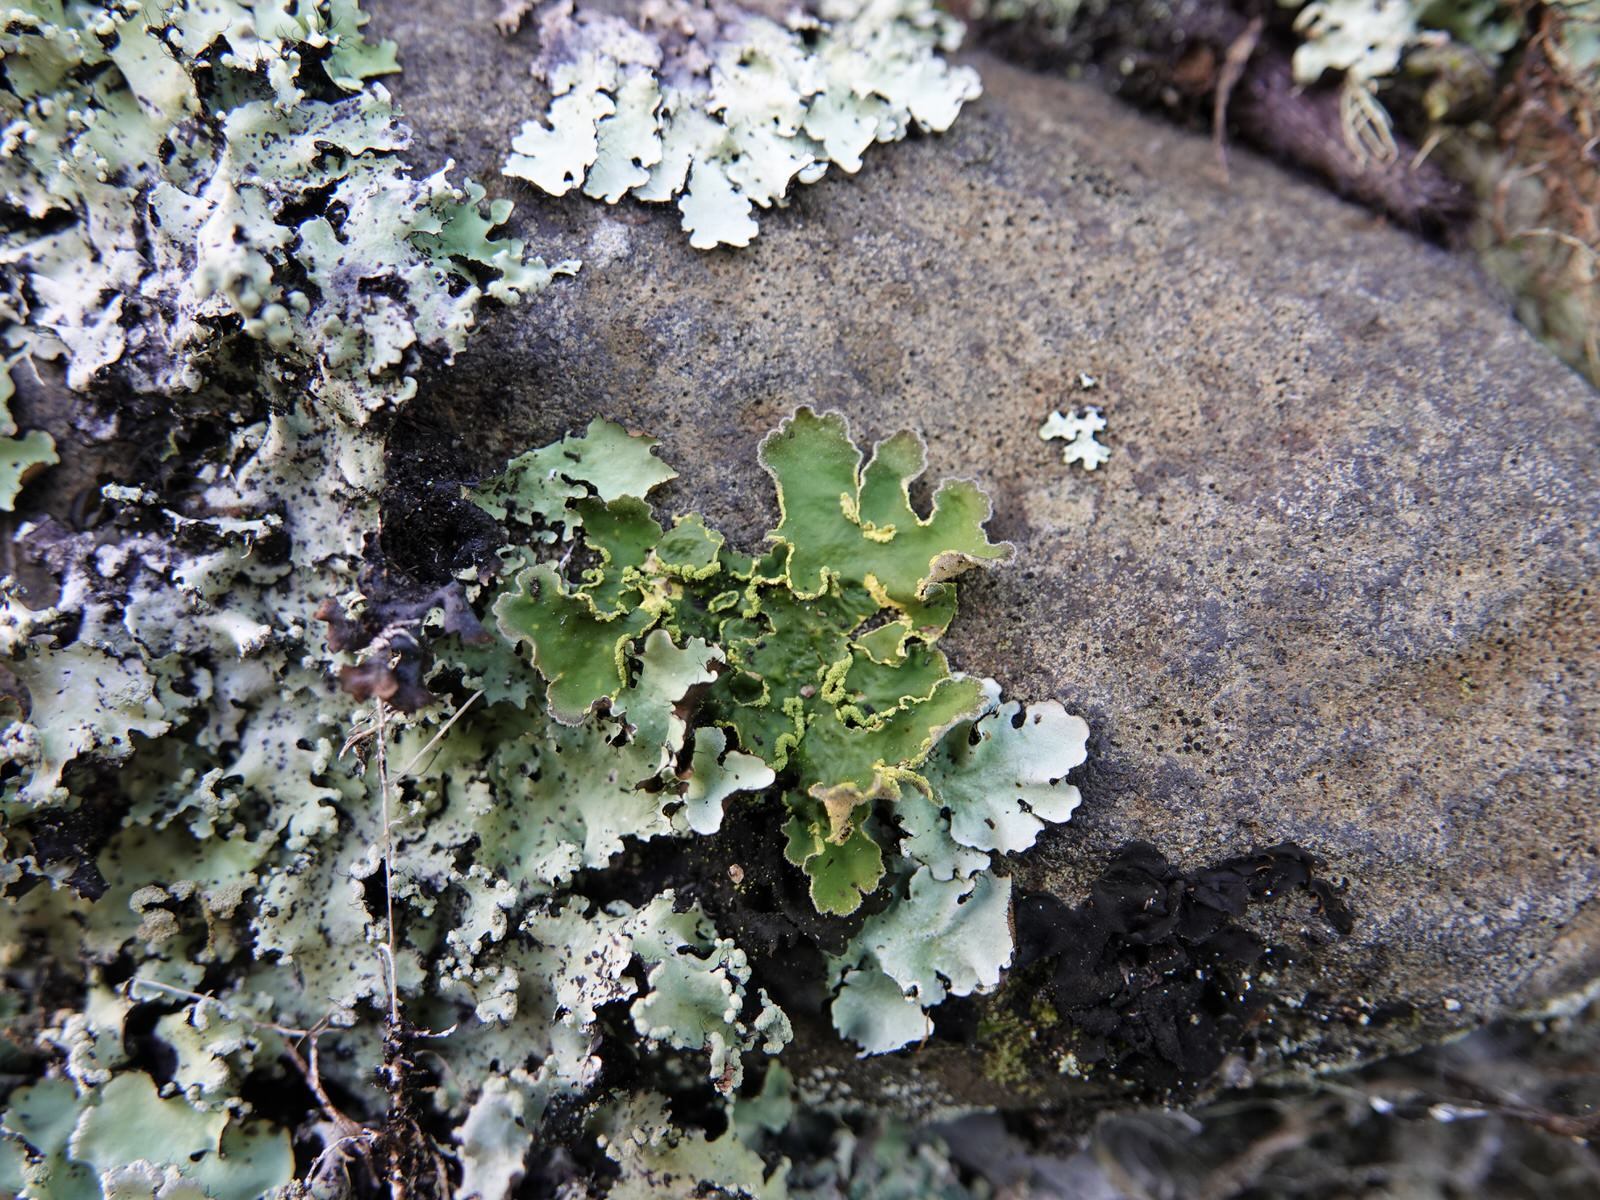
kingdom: Fungi
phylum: Ascomycota
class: Lecanoromycetes
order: Peltigerales
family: Lobariaceae
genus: Pseudocyphellaria
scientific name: Pseudocyphellaria aurata
